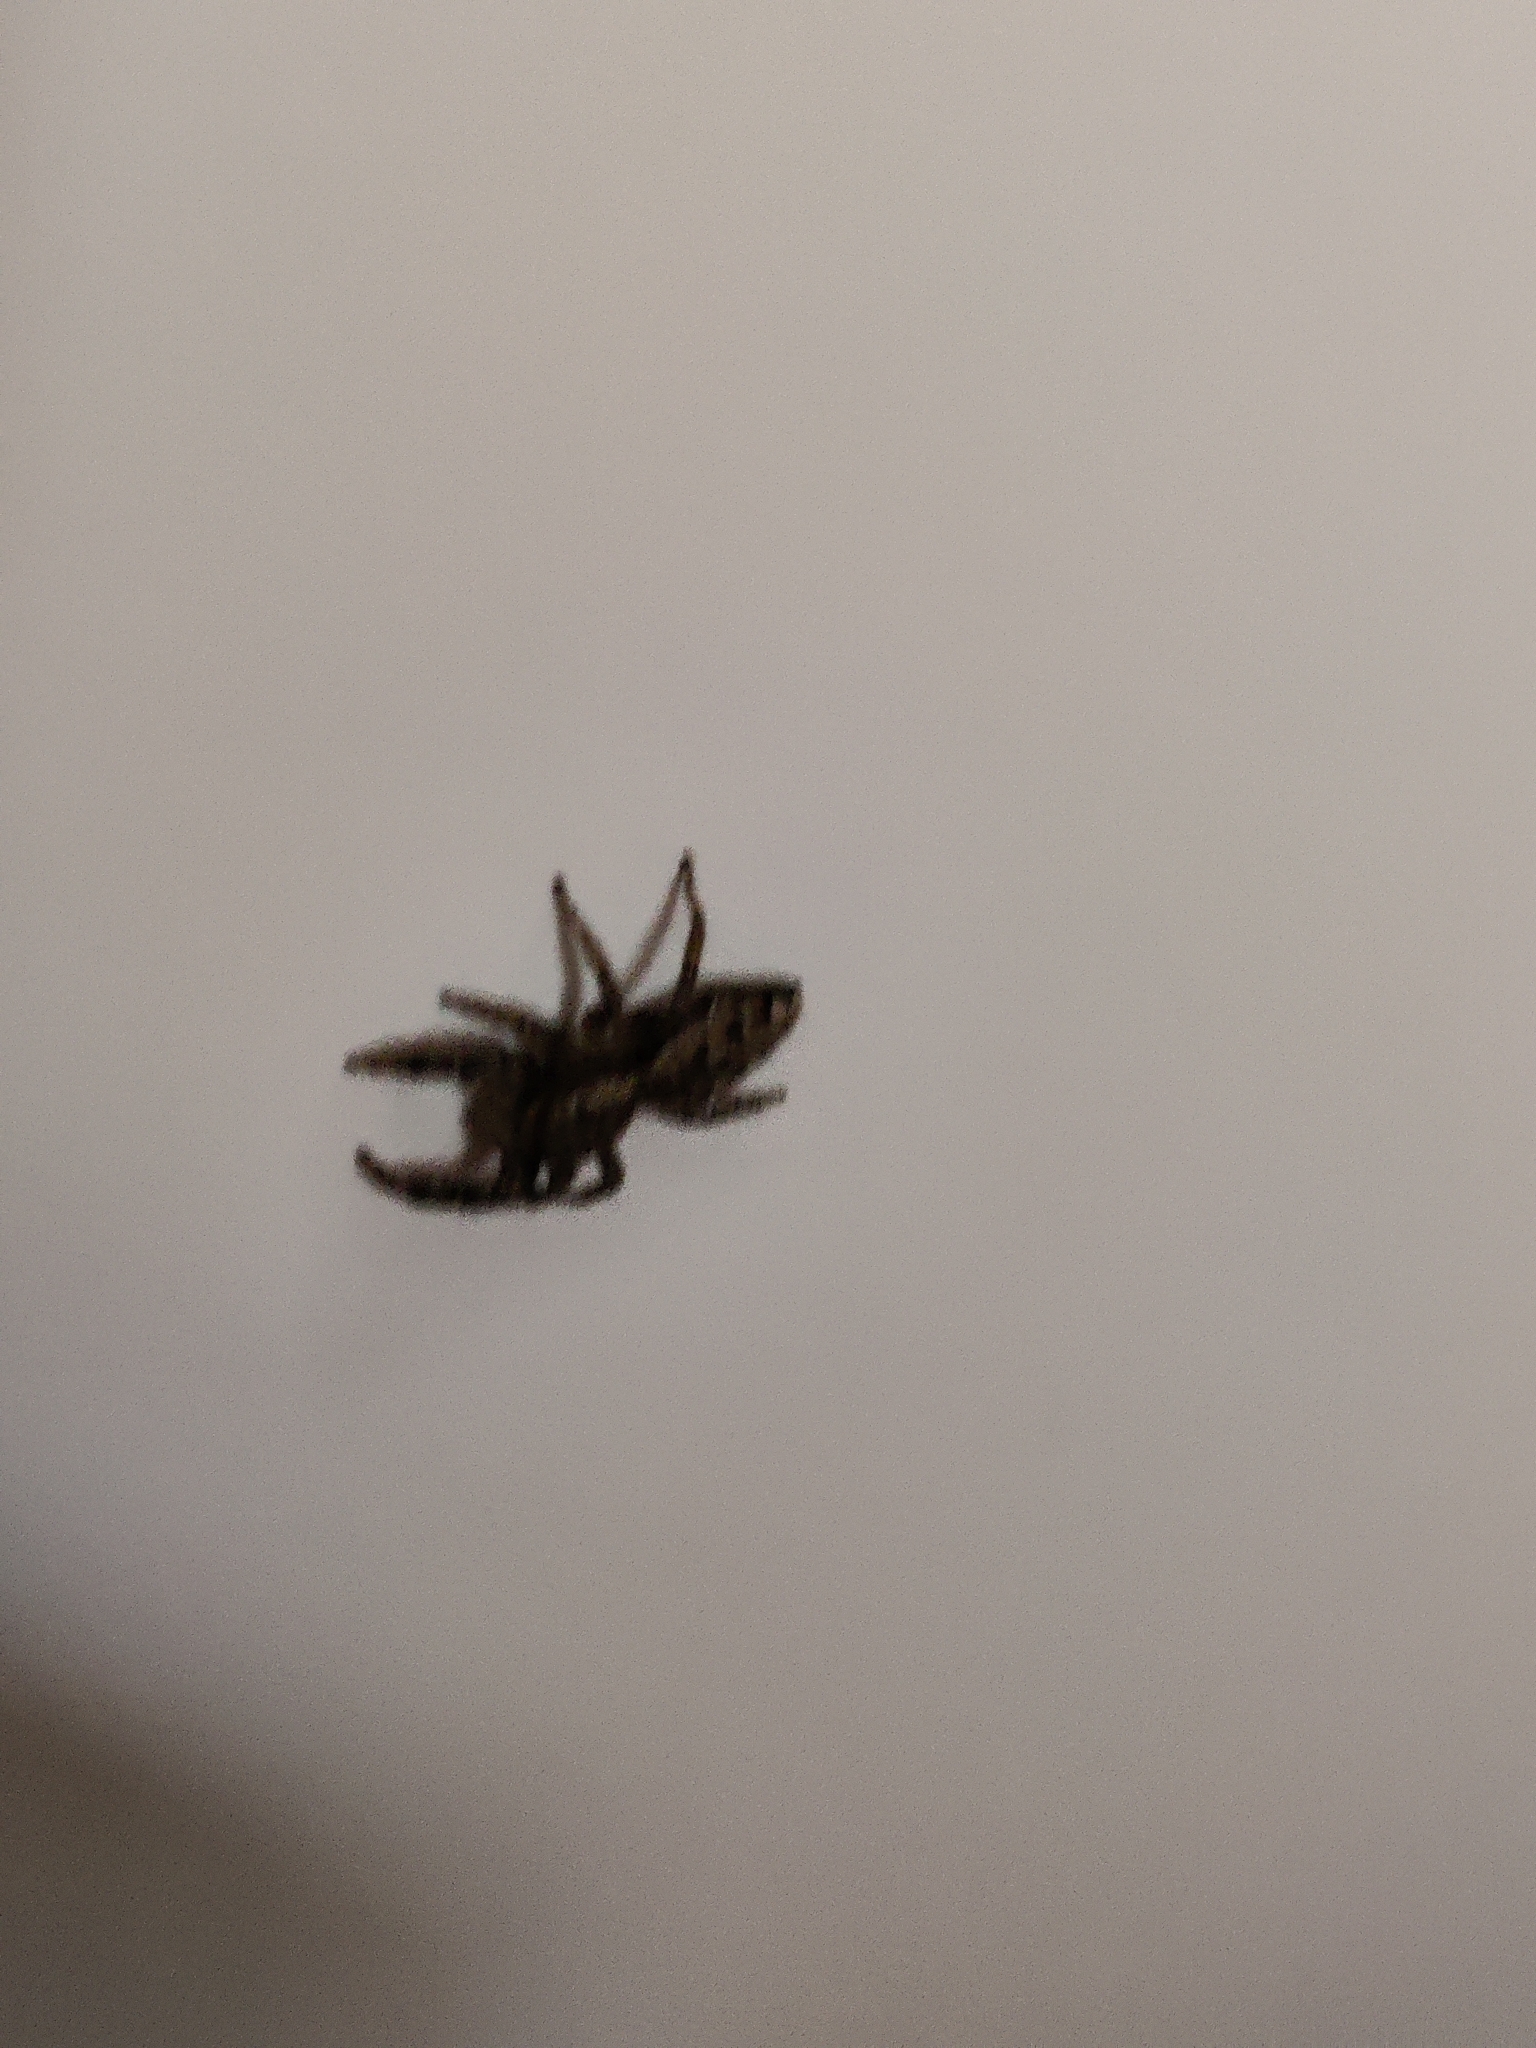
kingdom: Animalia
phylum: Arthropoda
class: Arachnida
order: Araneae
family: Salticidae
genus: Marpissa
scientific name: Marpissa muscosa
